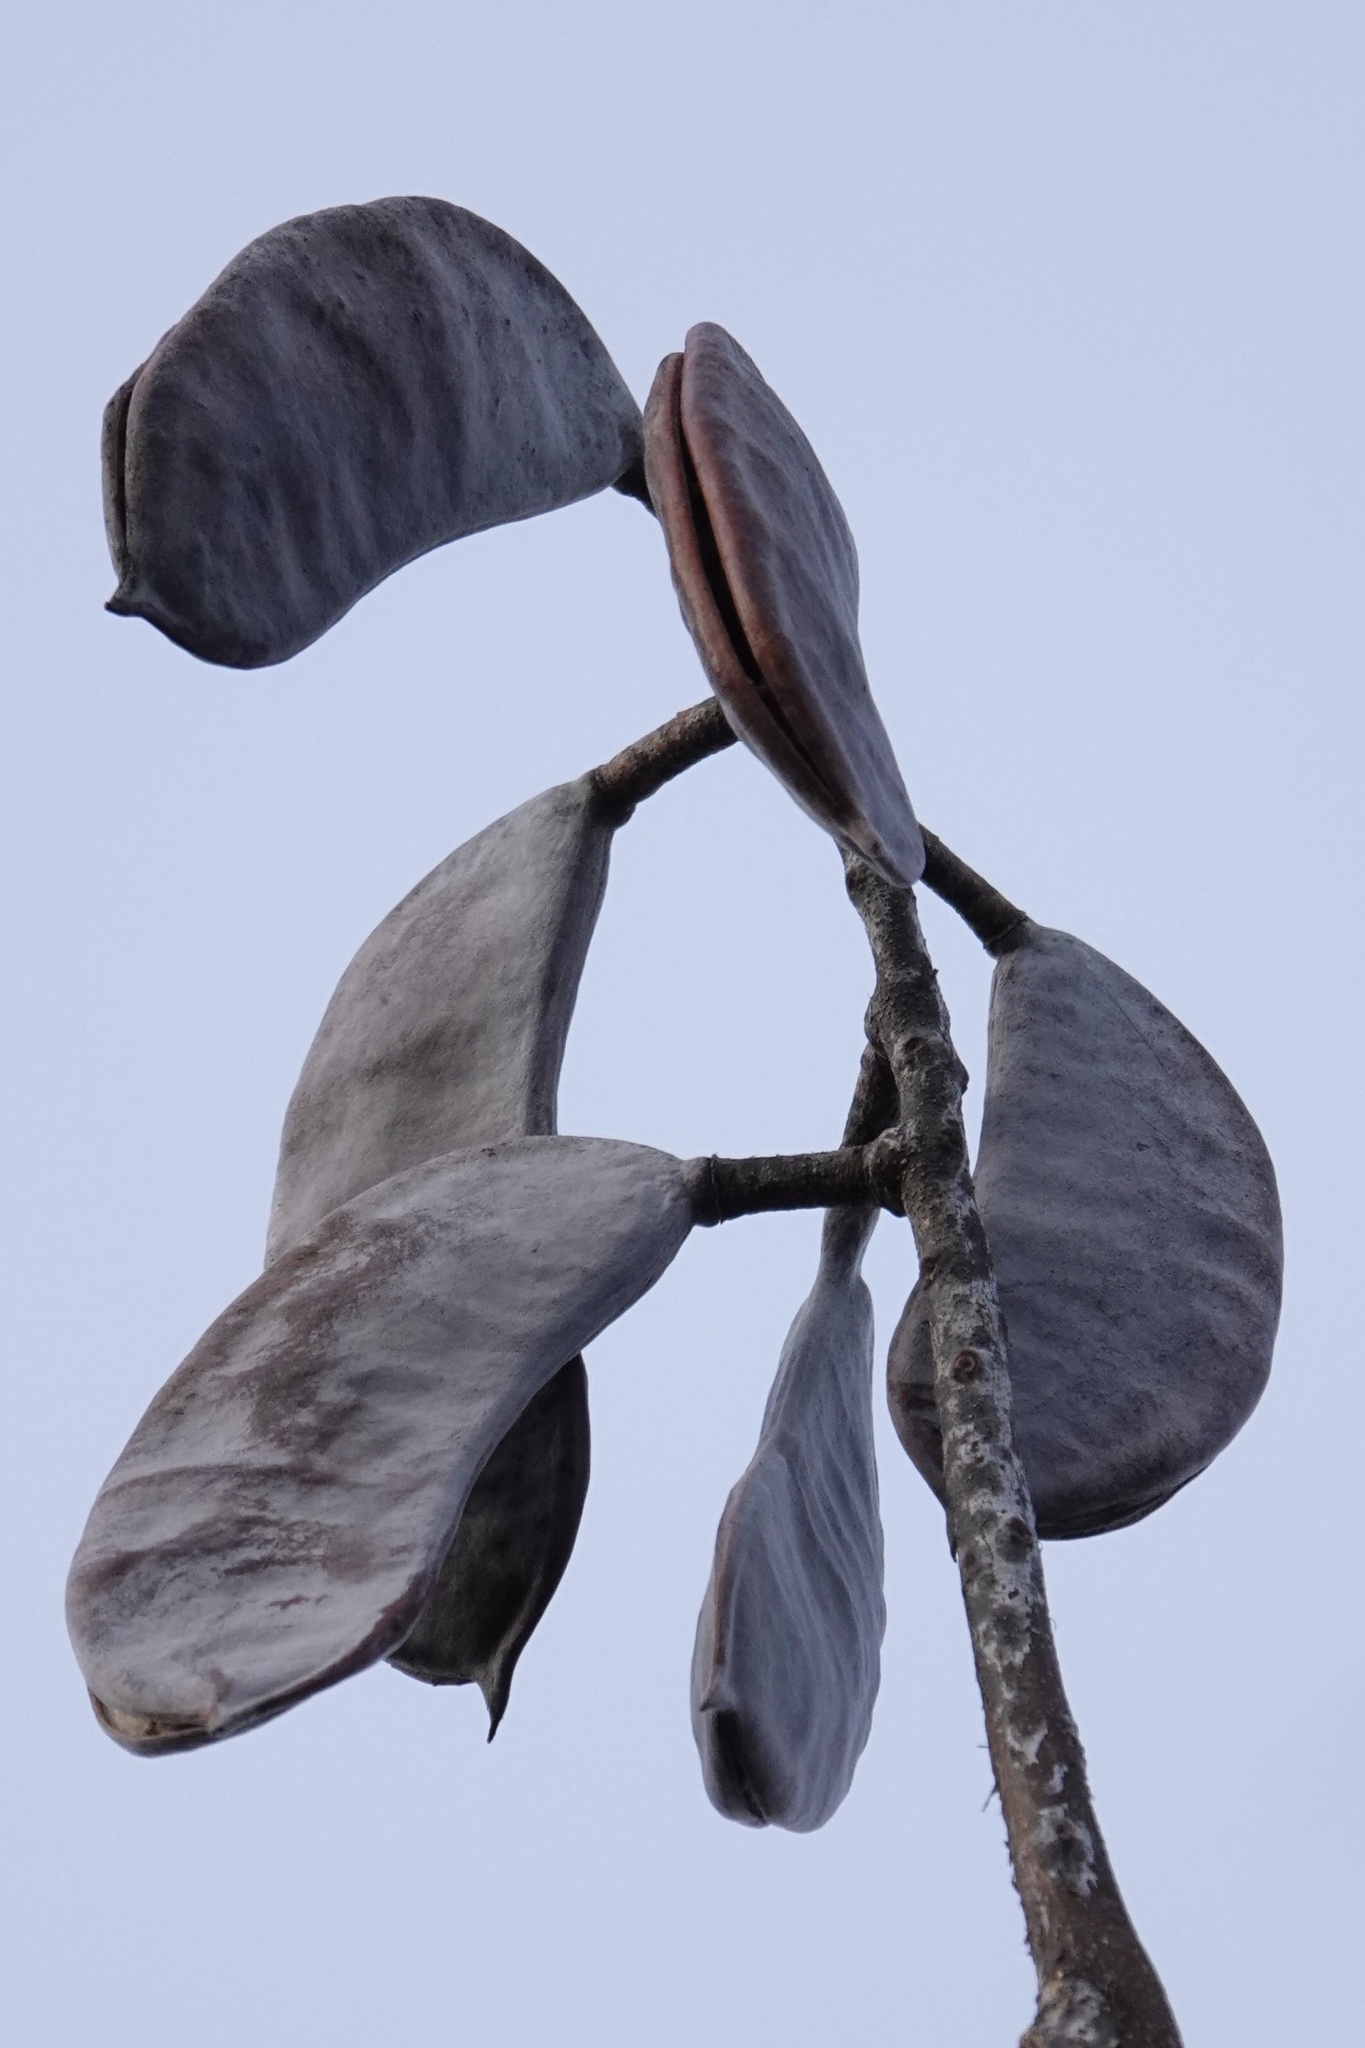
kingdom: Plantae
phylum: Tracheophyta
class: Magnoliopsida
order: Fabales
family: Fabaceae
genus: Gymnocladus
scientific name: Gymnocladus dioicus
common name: Kentucky coffee-tree
